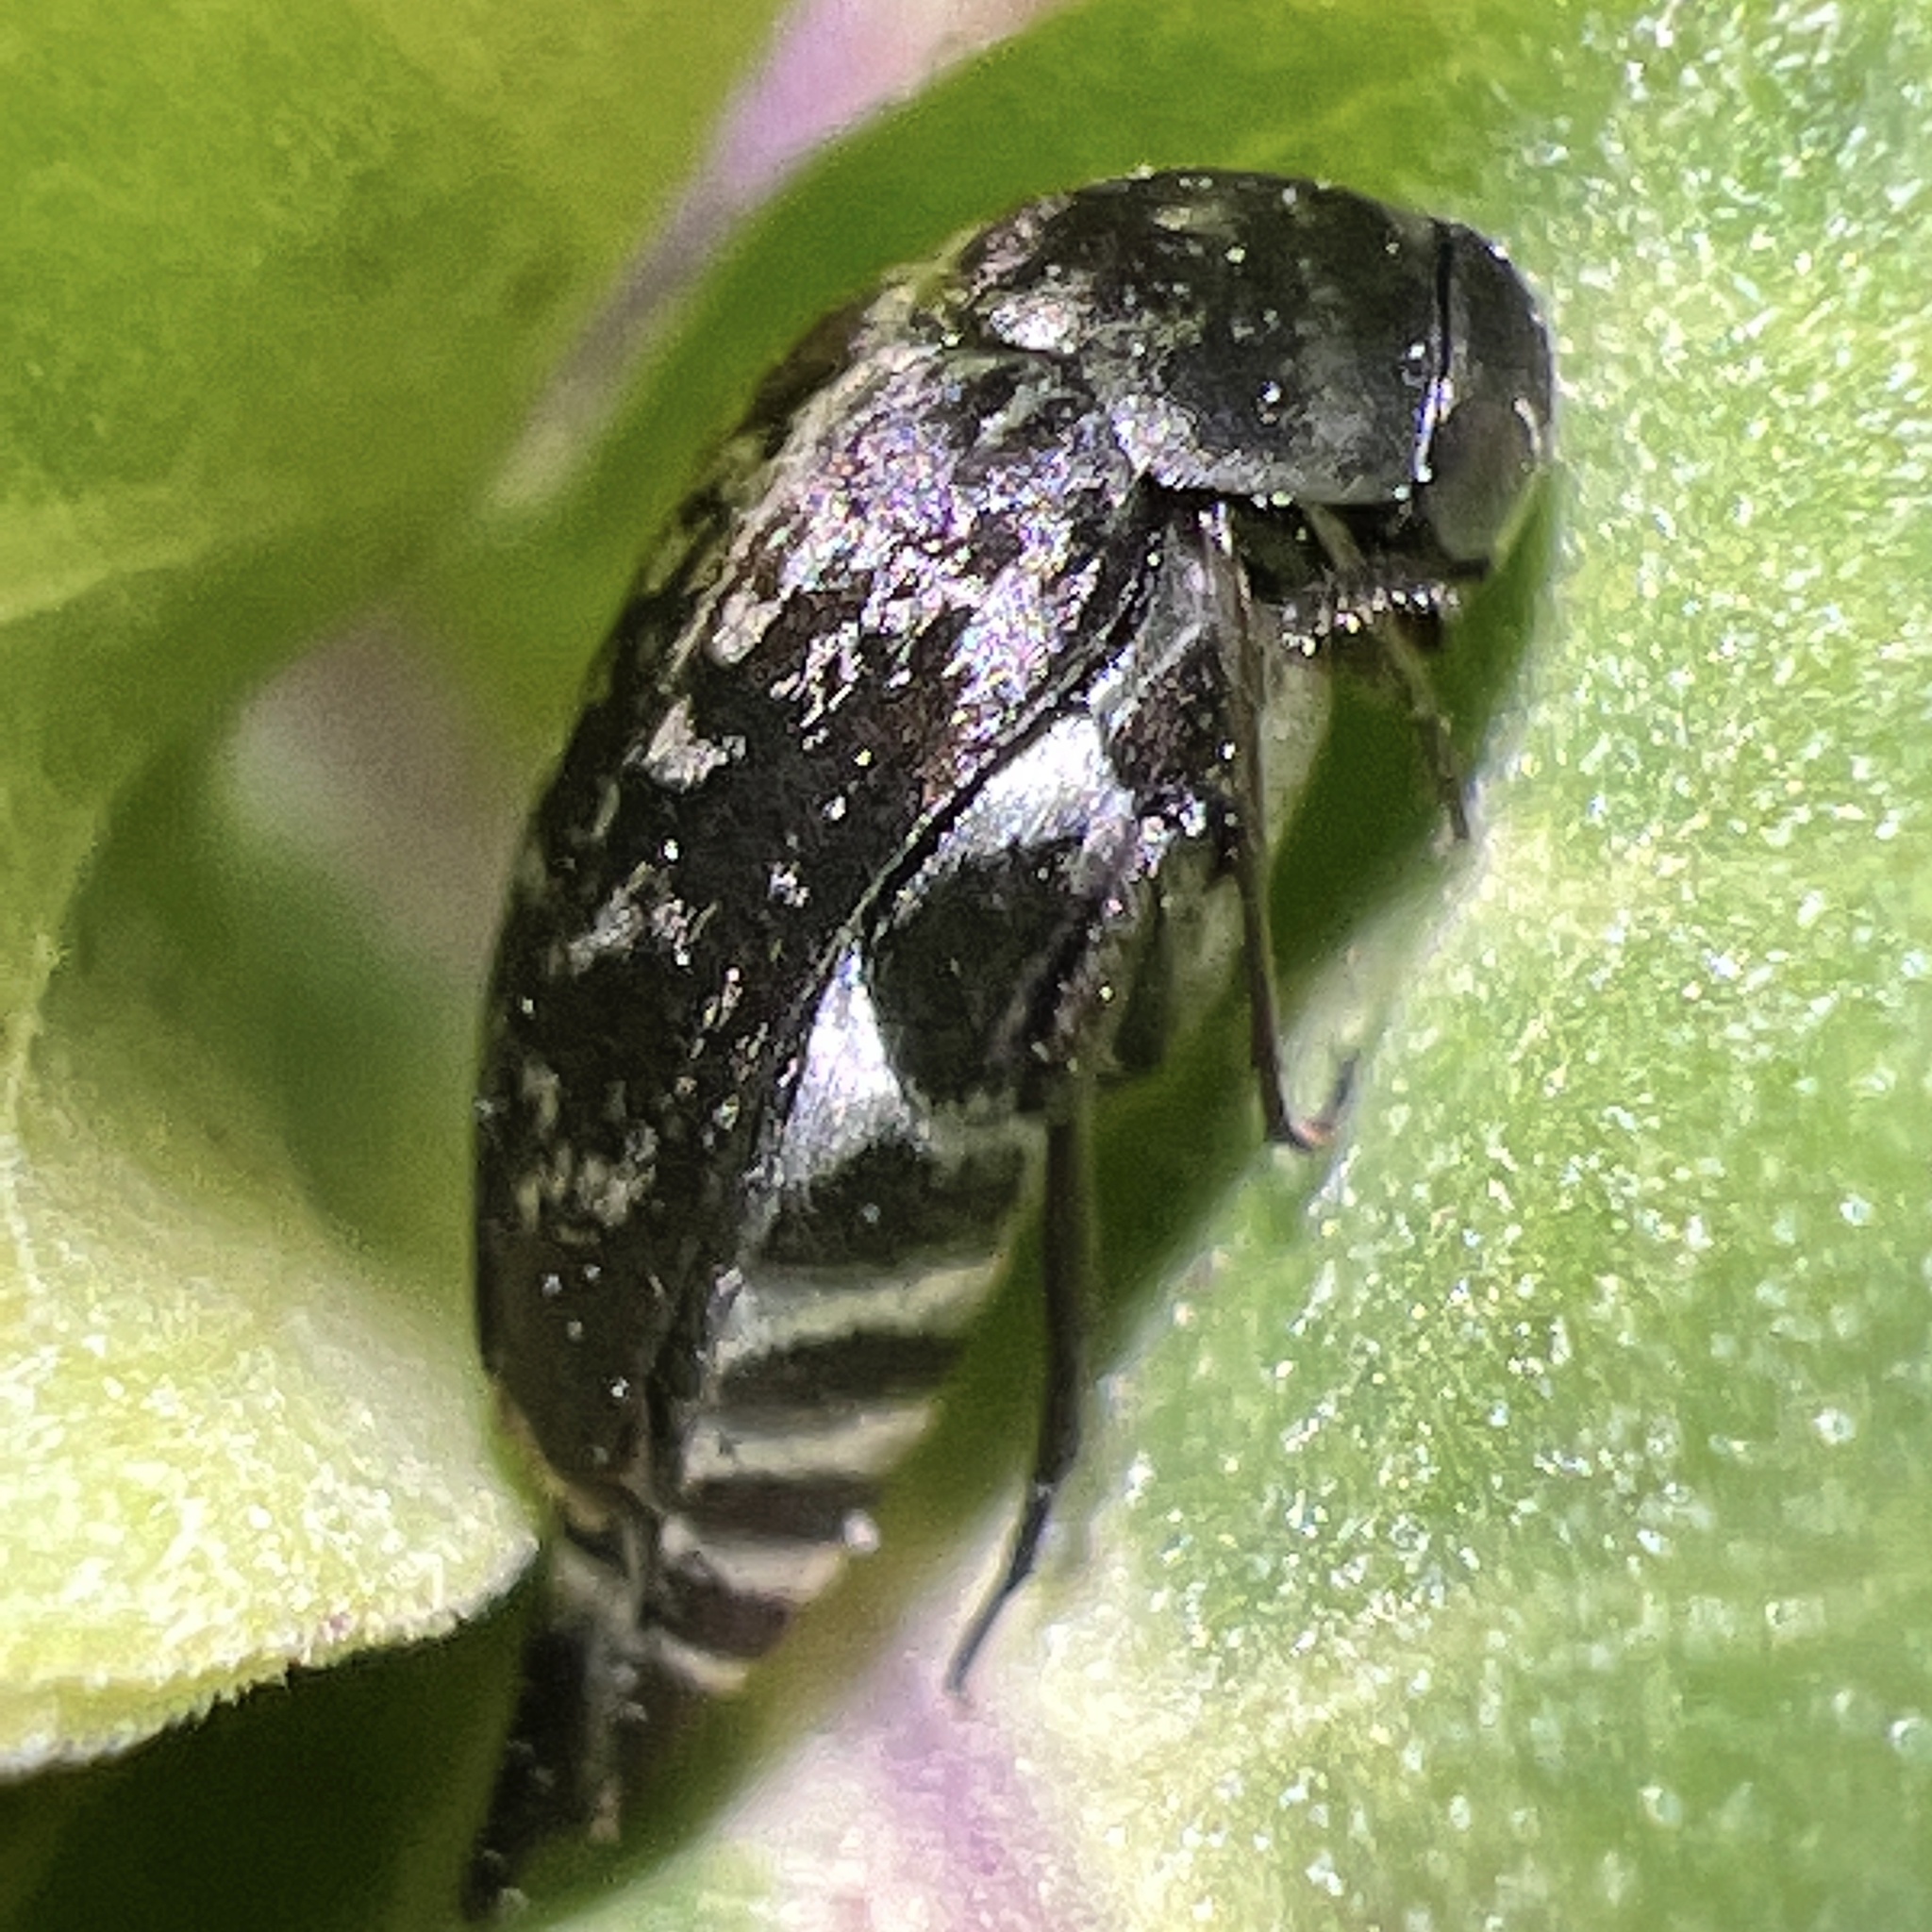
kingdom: Animalia
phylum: Arthropoda
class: Insecta
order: Coleoptera
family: Mordellidae
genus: Mordella
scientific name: Mordella marginata
